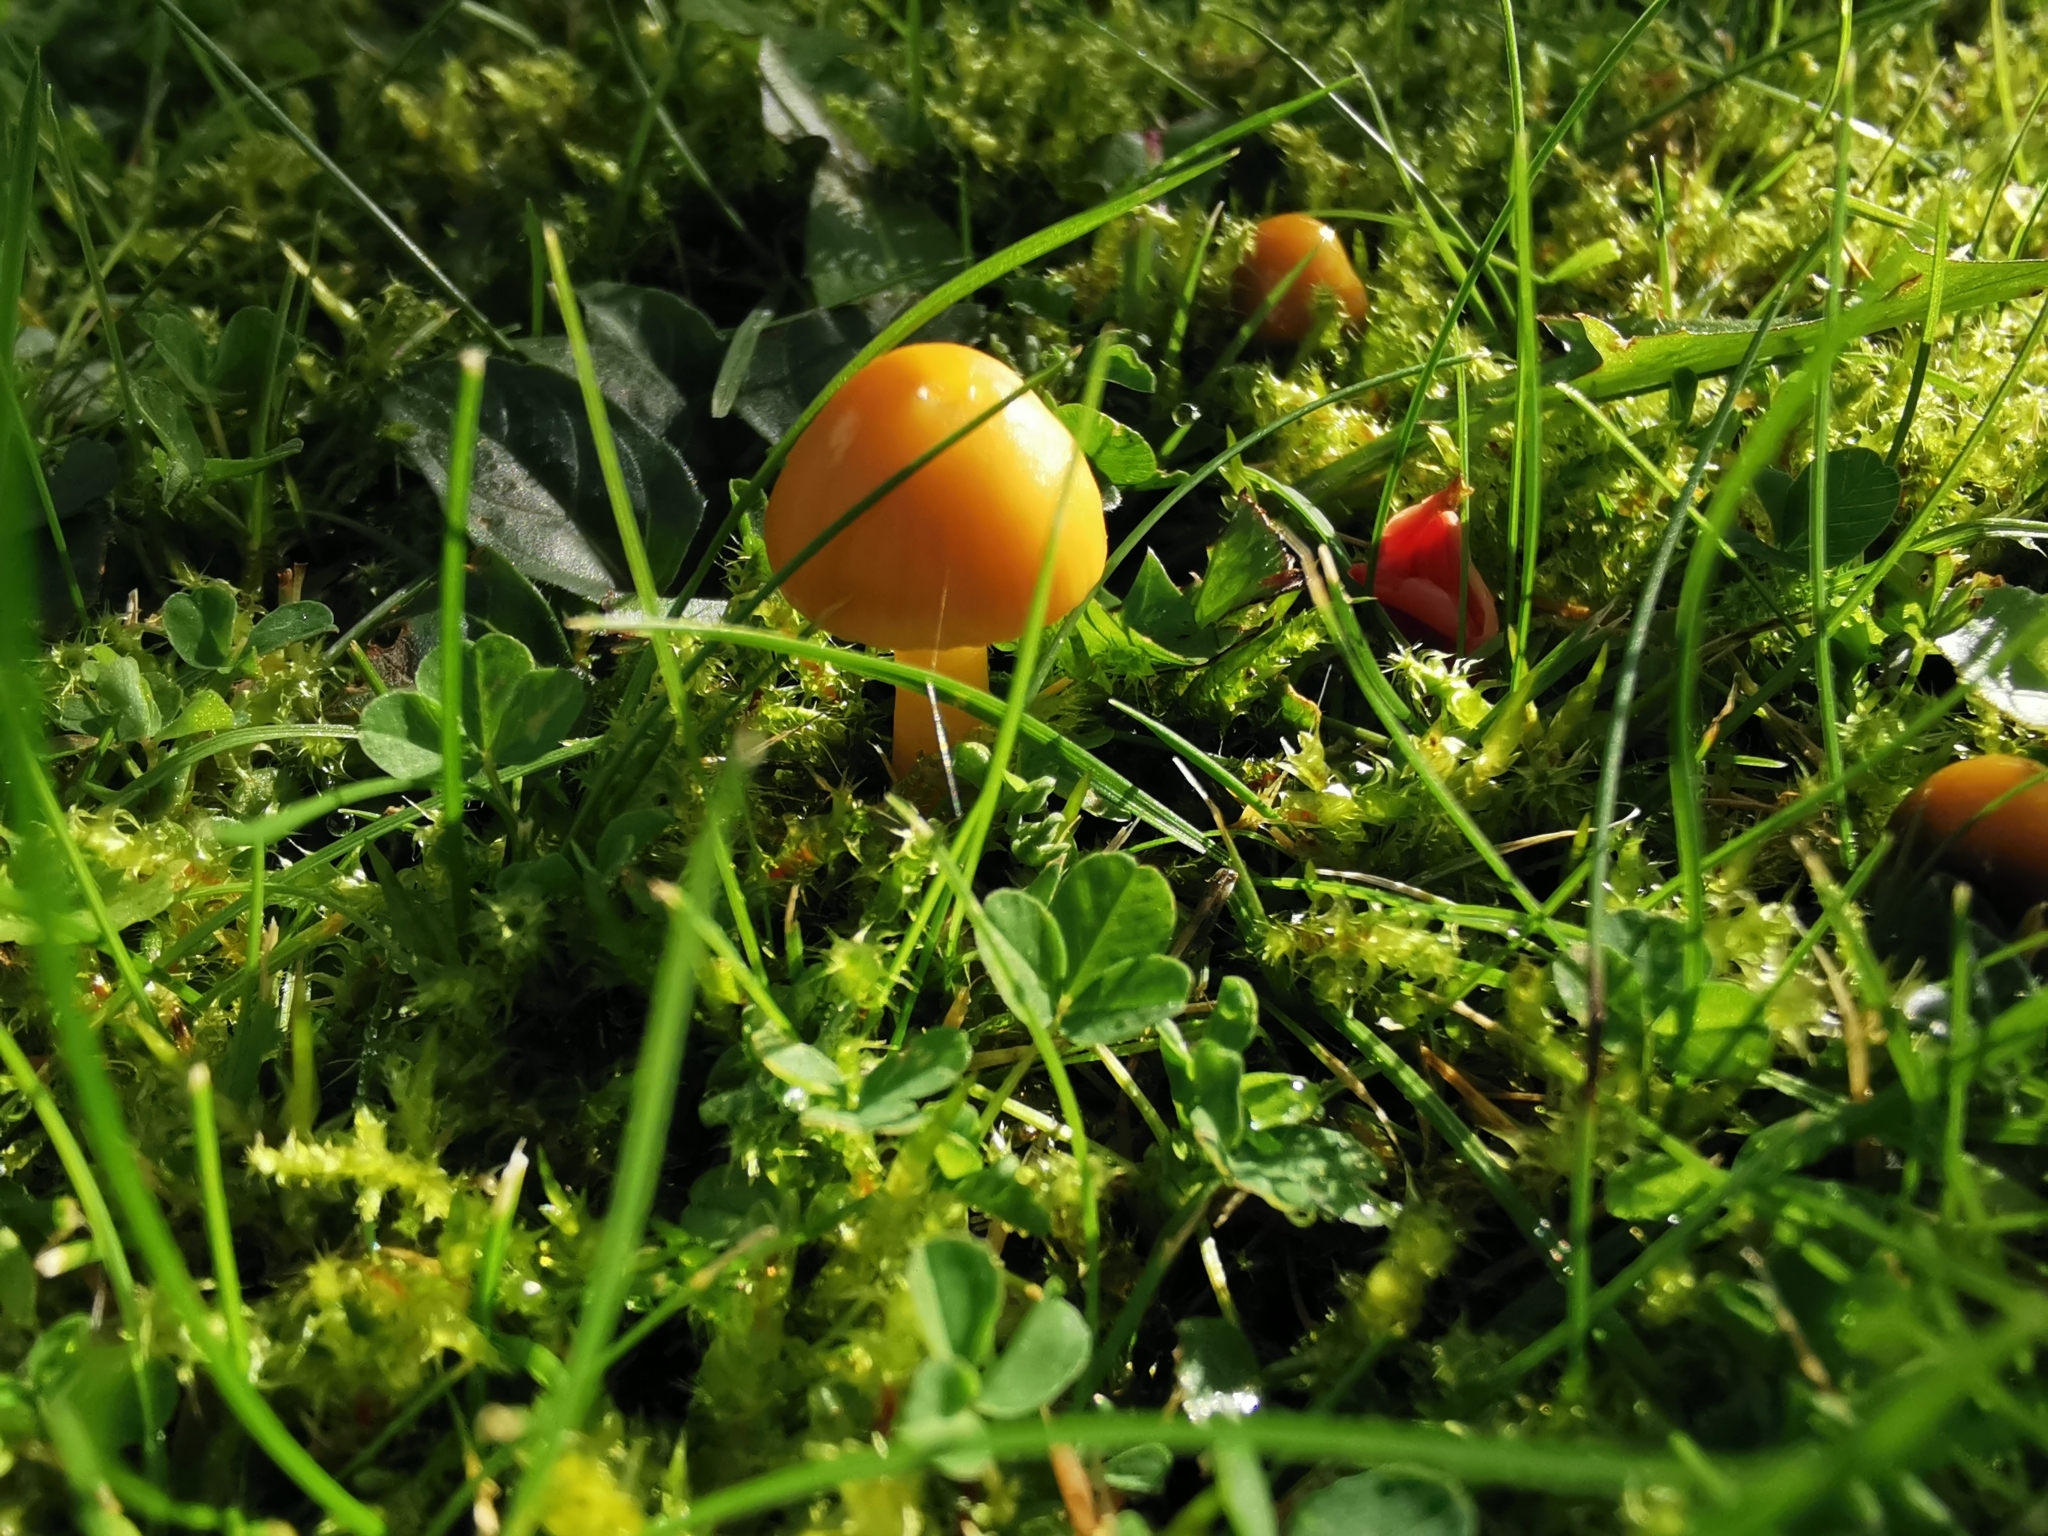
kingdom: Fungi
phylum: Basidiomycota
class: Agaricomycetes
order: Agaricales
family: Hygrophoraceae
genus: Hygrocybe
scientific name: Hygrocybe conica
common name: Blackening wax-cap
